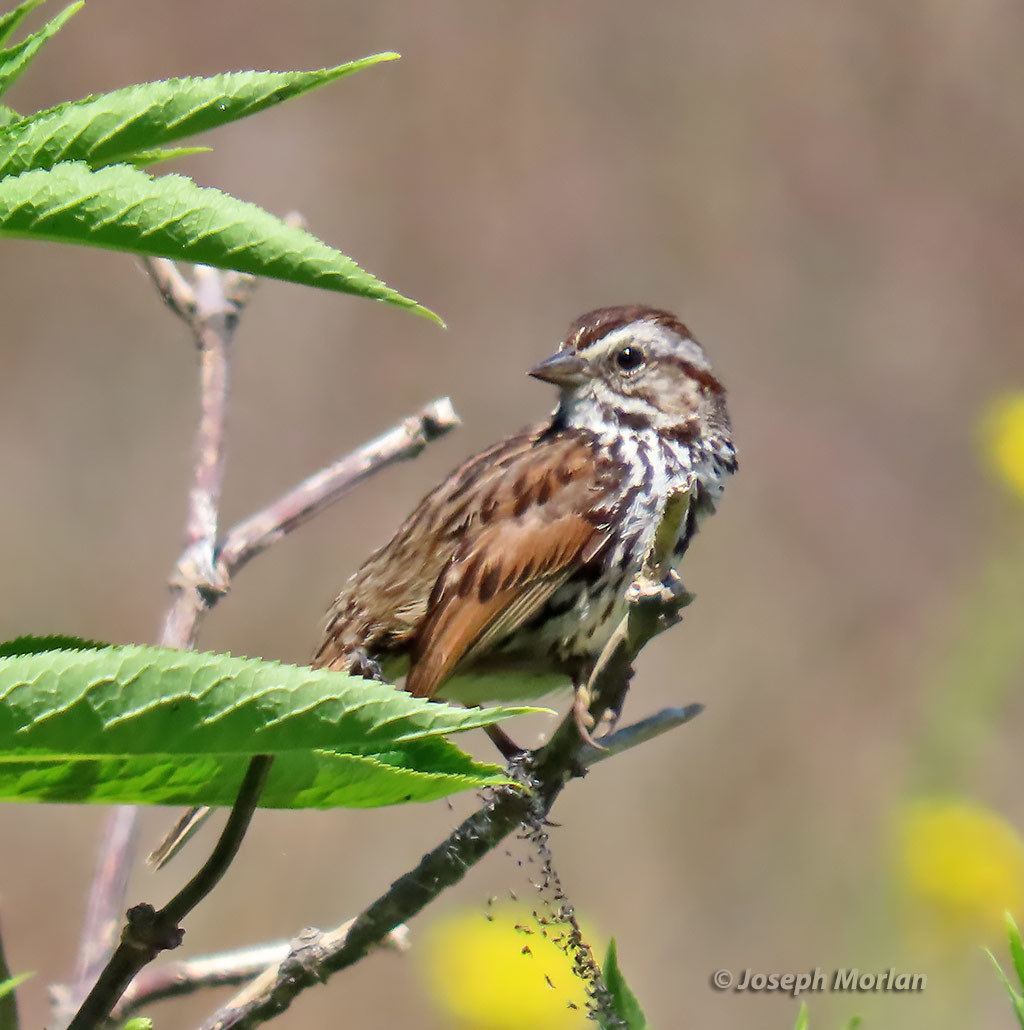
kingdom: Animalia
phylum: Chordata
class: Aves
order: Passeriformes
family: Passerellidae
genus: Melospiza
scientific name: Melospiza melodia
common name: Song sparrow
